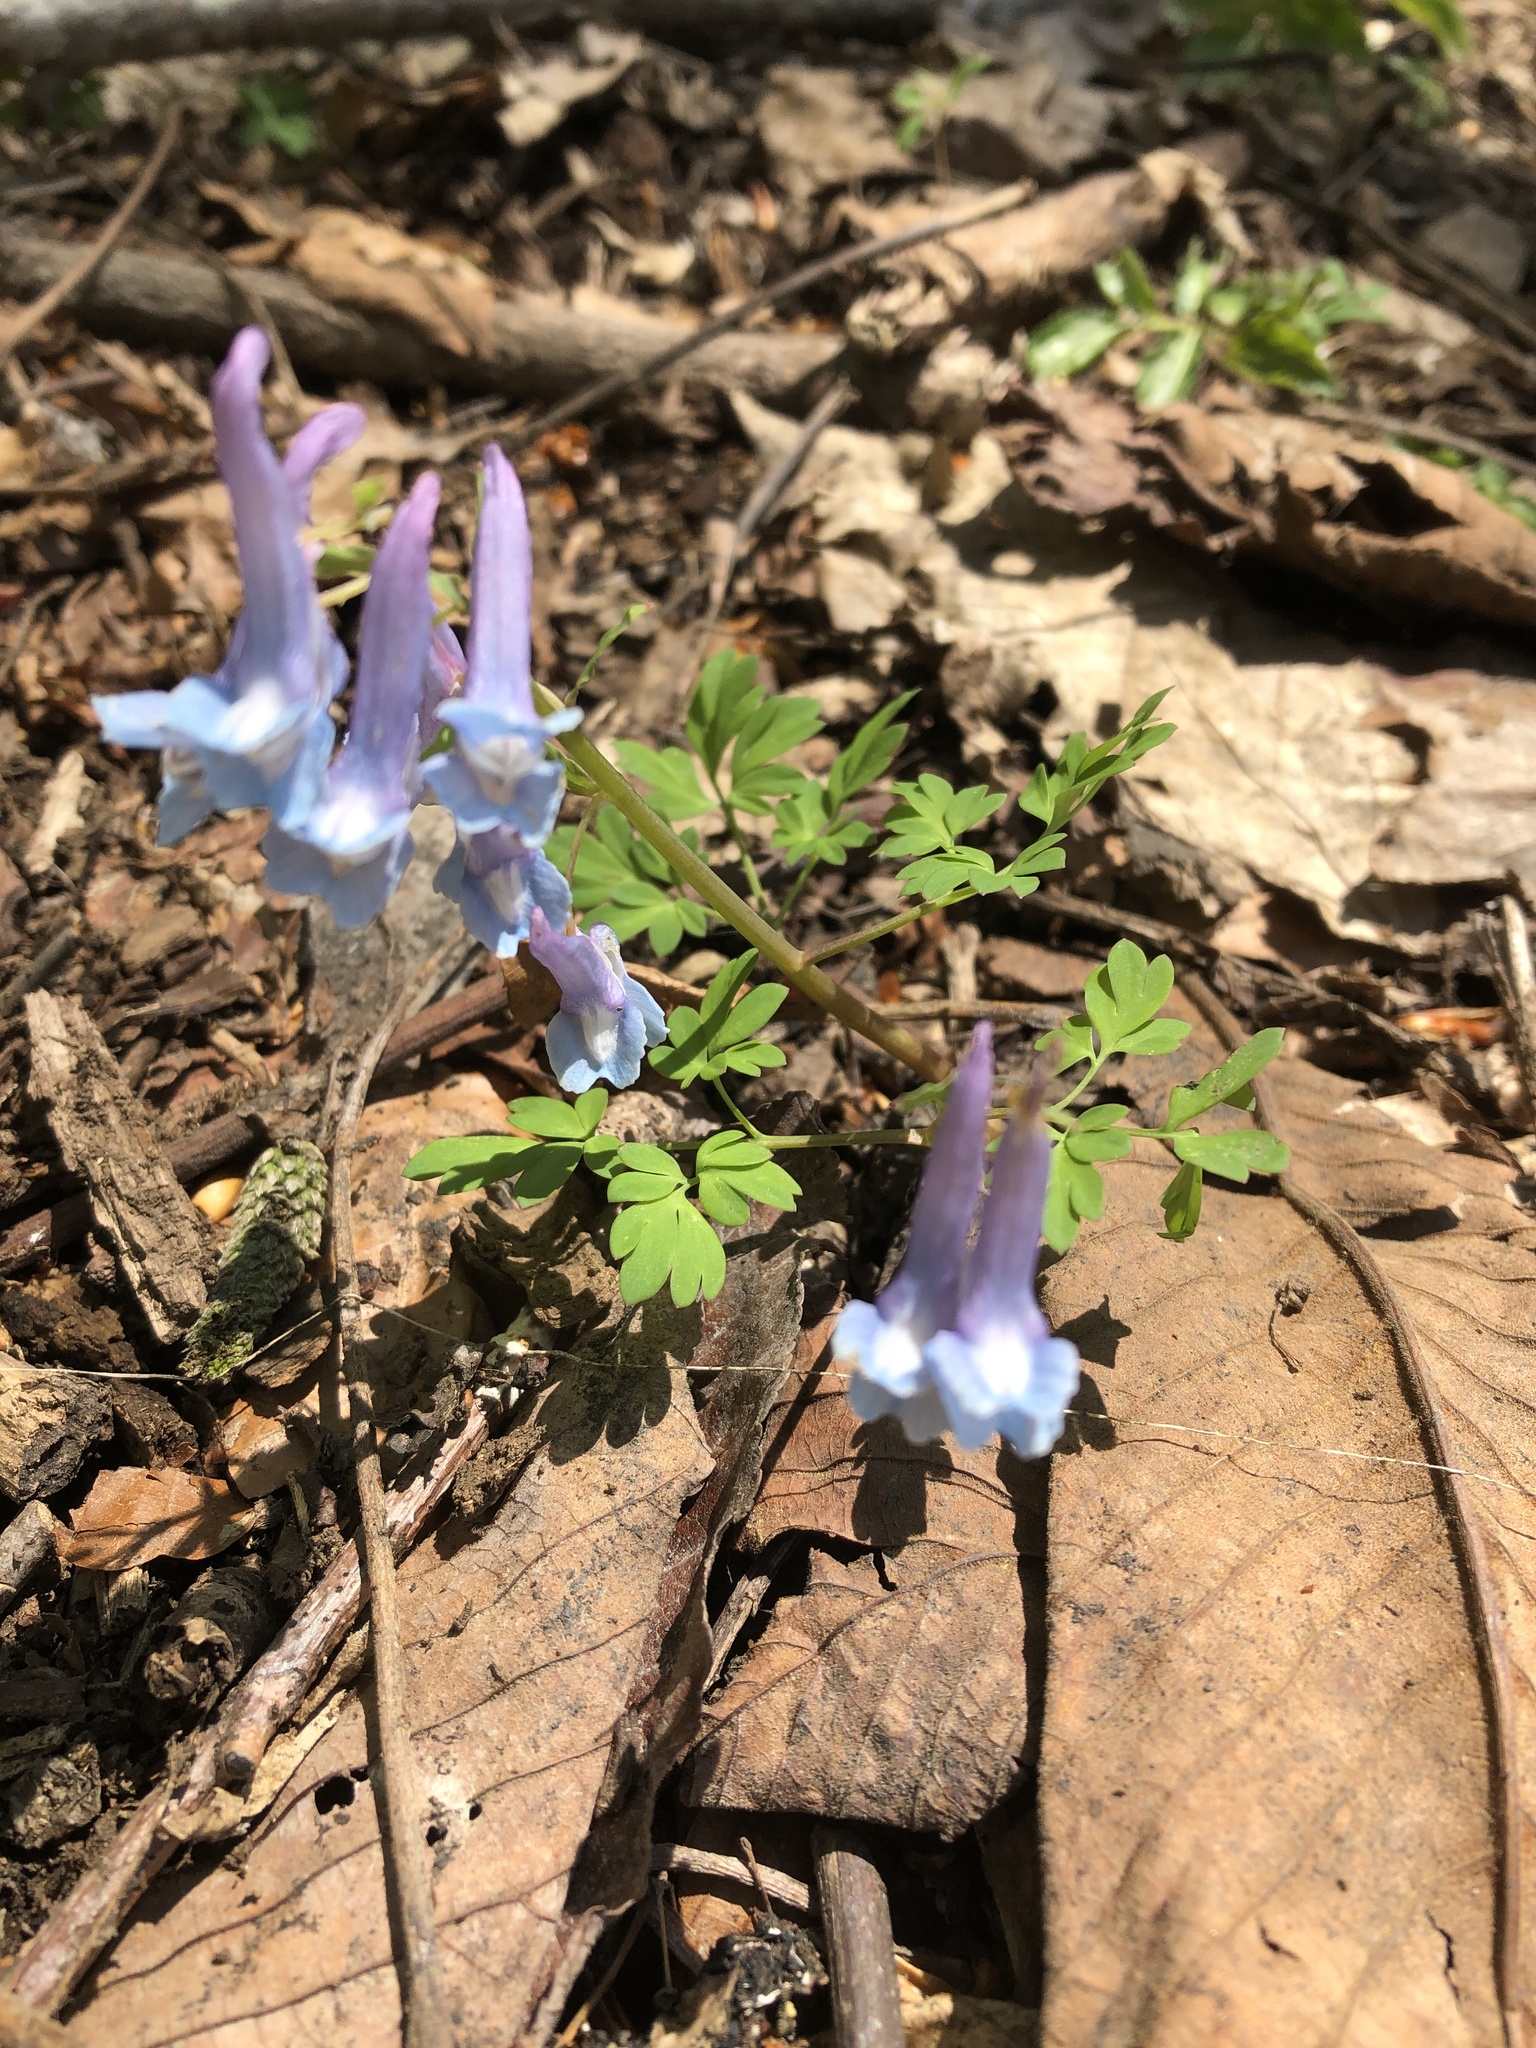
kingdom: Plantae
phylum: Tracheophyta
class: Magnoliopsida
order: Ranunculales
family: Papaveraceae
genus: Corydalis
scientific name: Corydalis fukuharae
